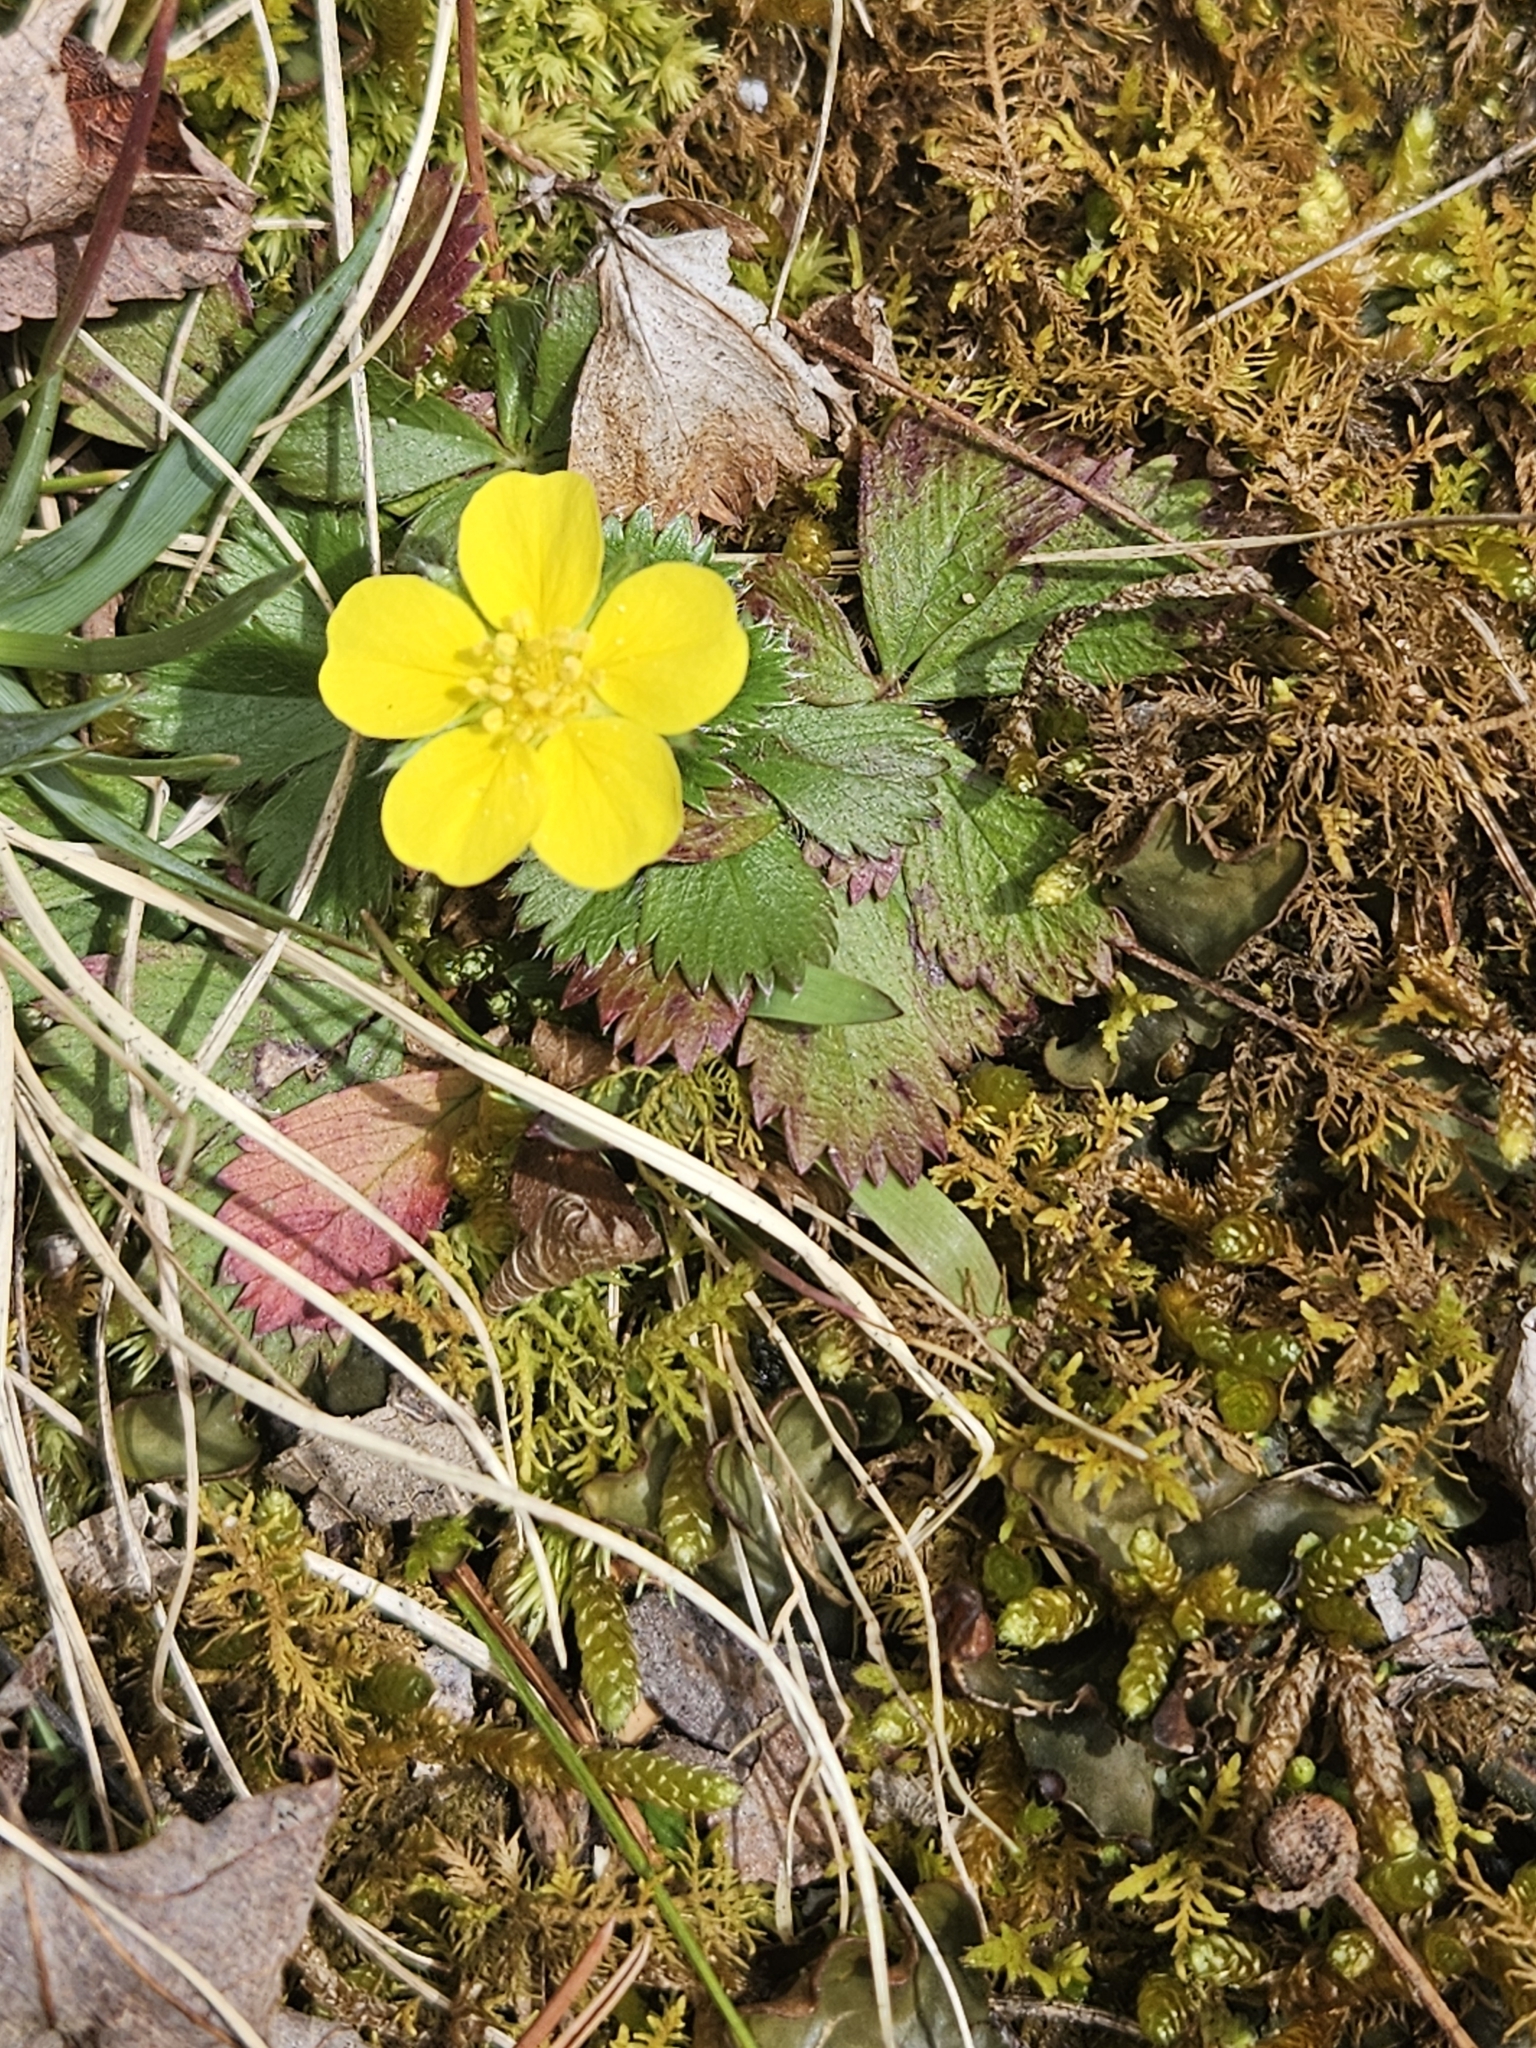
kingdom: Plantae
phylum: Tracheophyta
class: Magnoliopsida
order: Rosales
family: Rosaceae
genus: Potentilla
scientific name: Potentilla canadensis
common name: Canada cinquefoil
